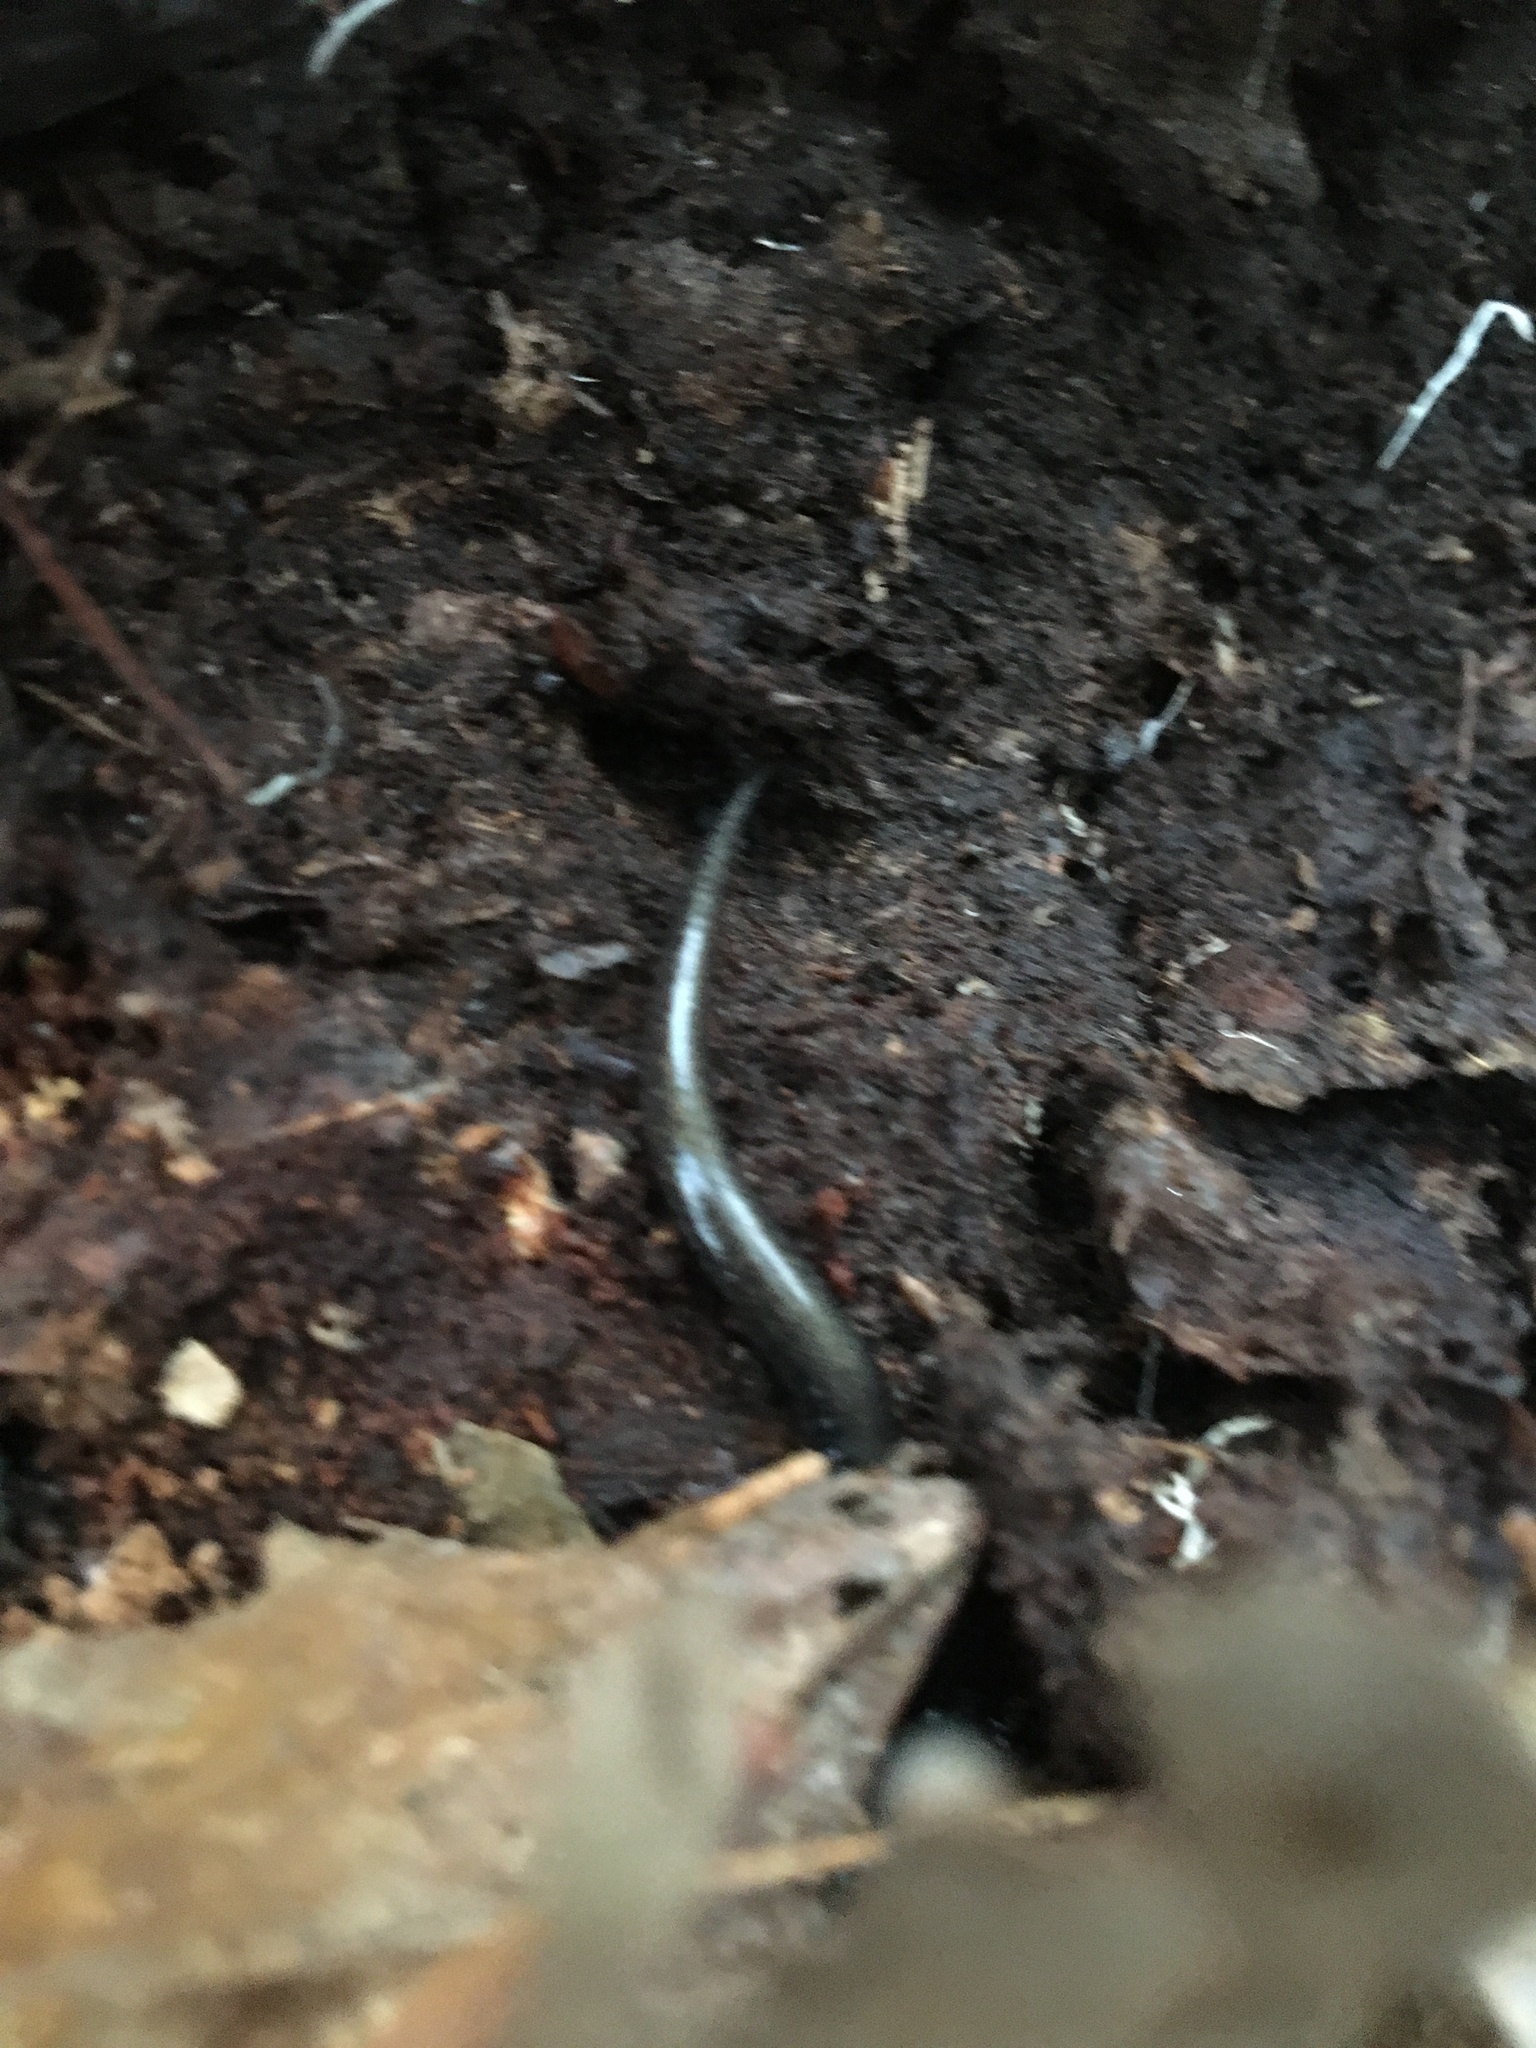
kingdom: Animalia
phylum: Chordata
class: Amphibia
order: Caudata
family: Plethodontidae
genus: Plethodon
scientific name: Plethodon cinereus
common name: Redback salamander
